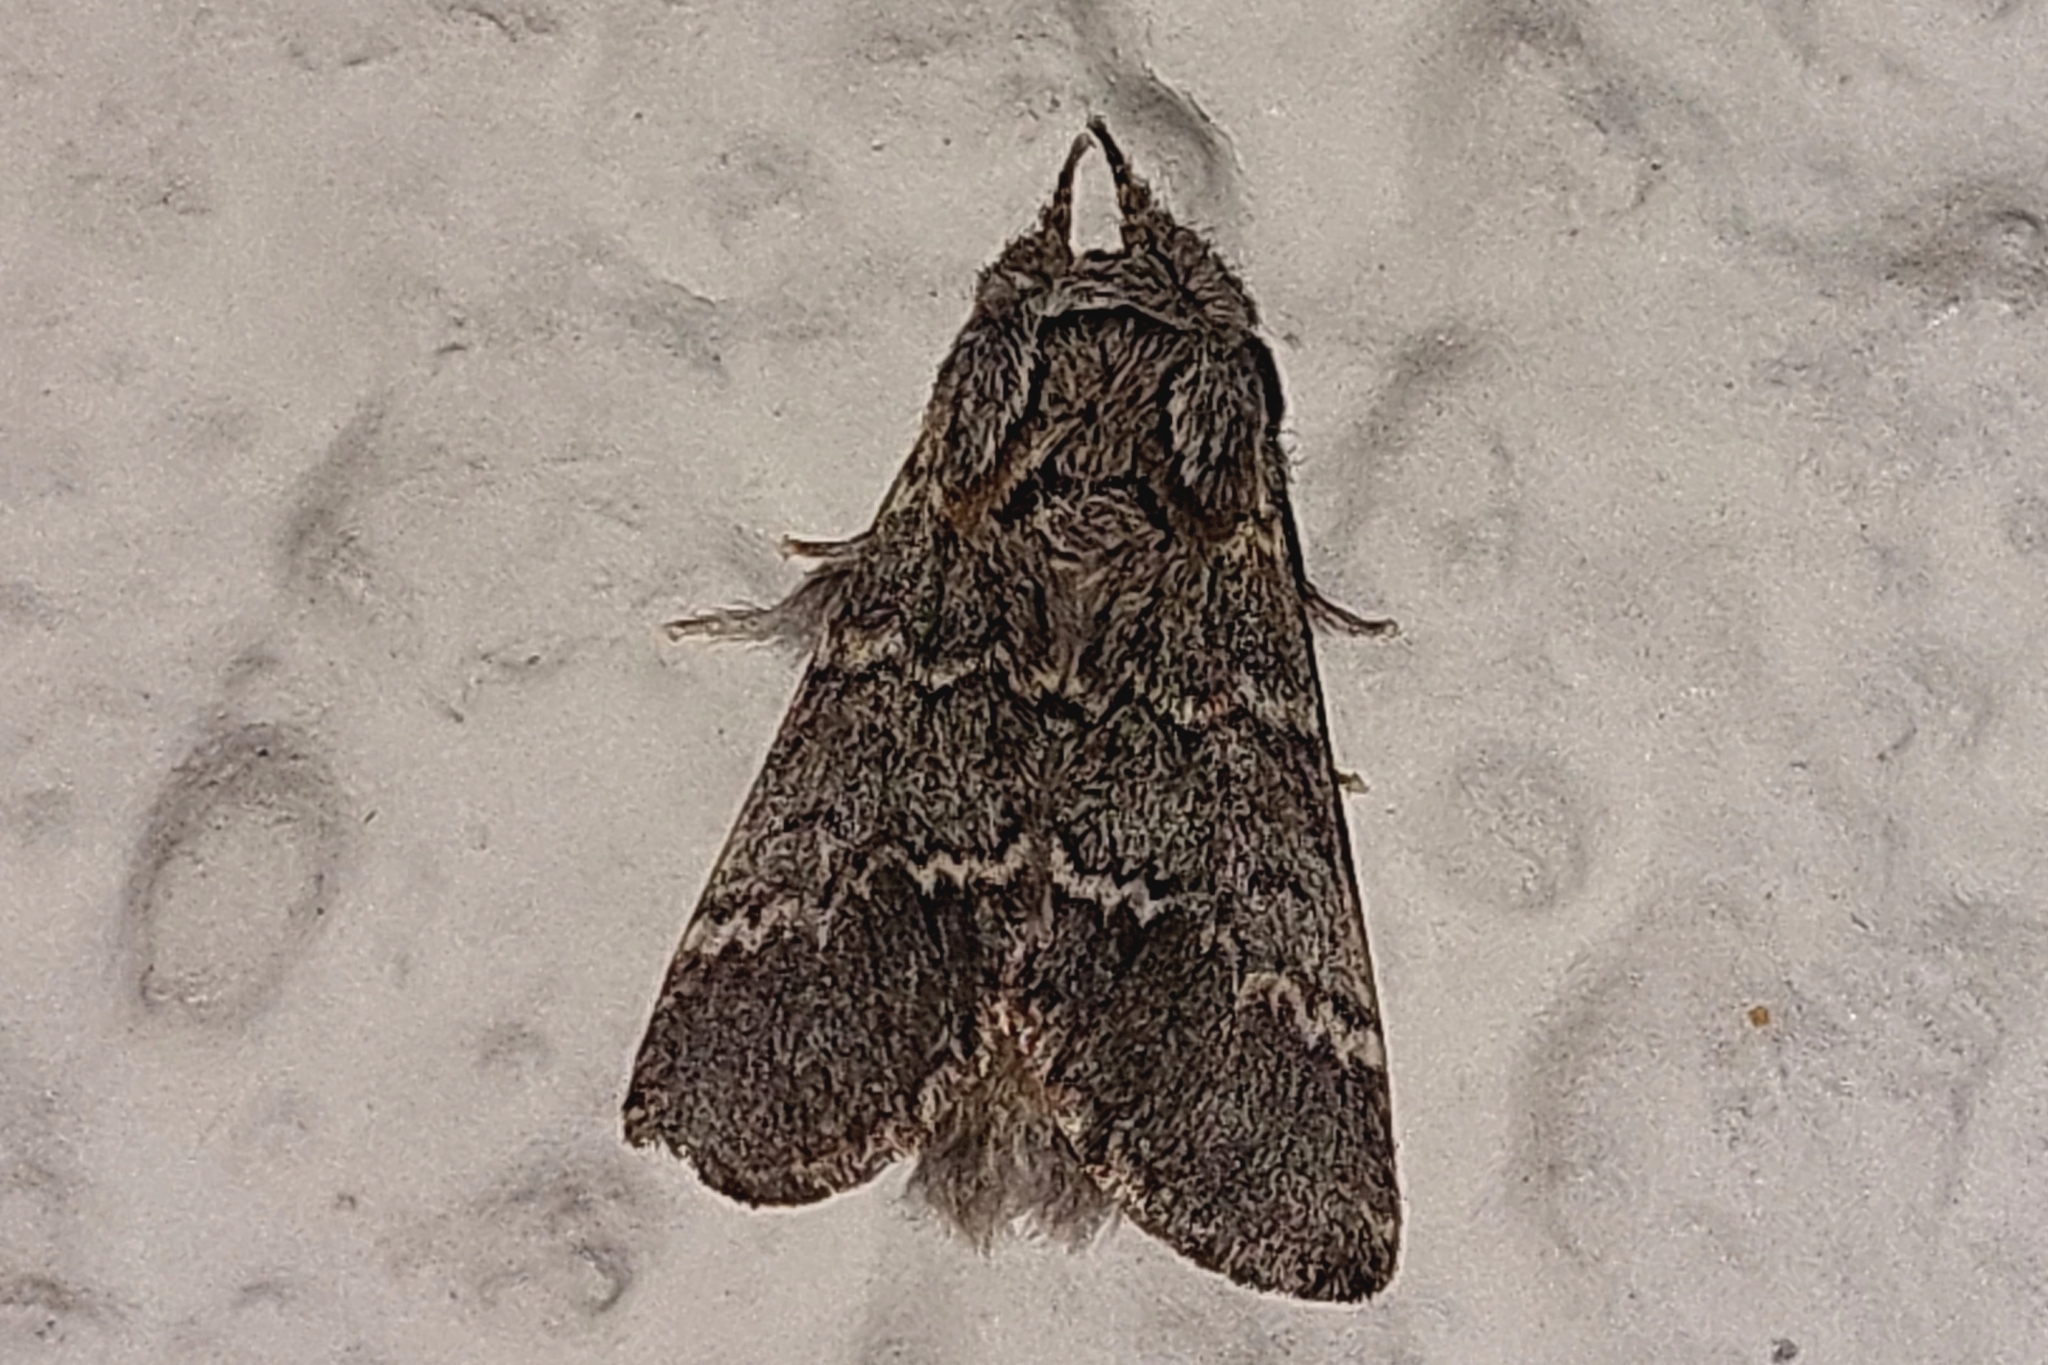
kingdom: Animalia
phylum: Arthropoda
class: Insecta
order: Lepidoptera
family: Notodontidae
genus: Drymonia
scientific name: Drymonia ruficornis
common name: Lunar marbled brown
